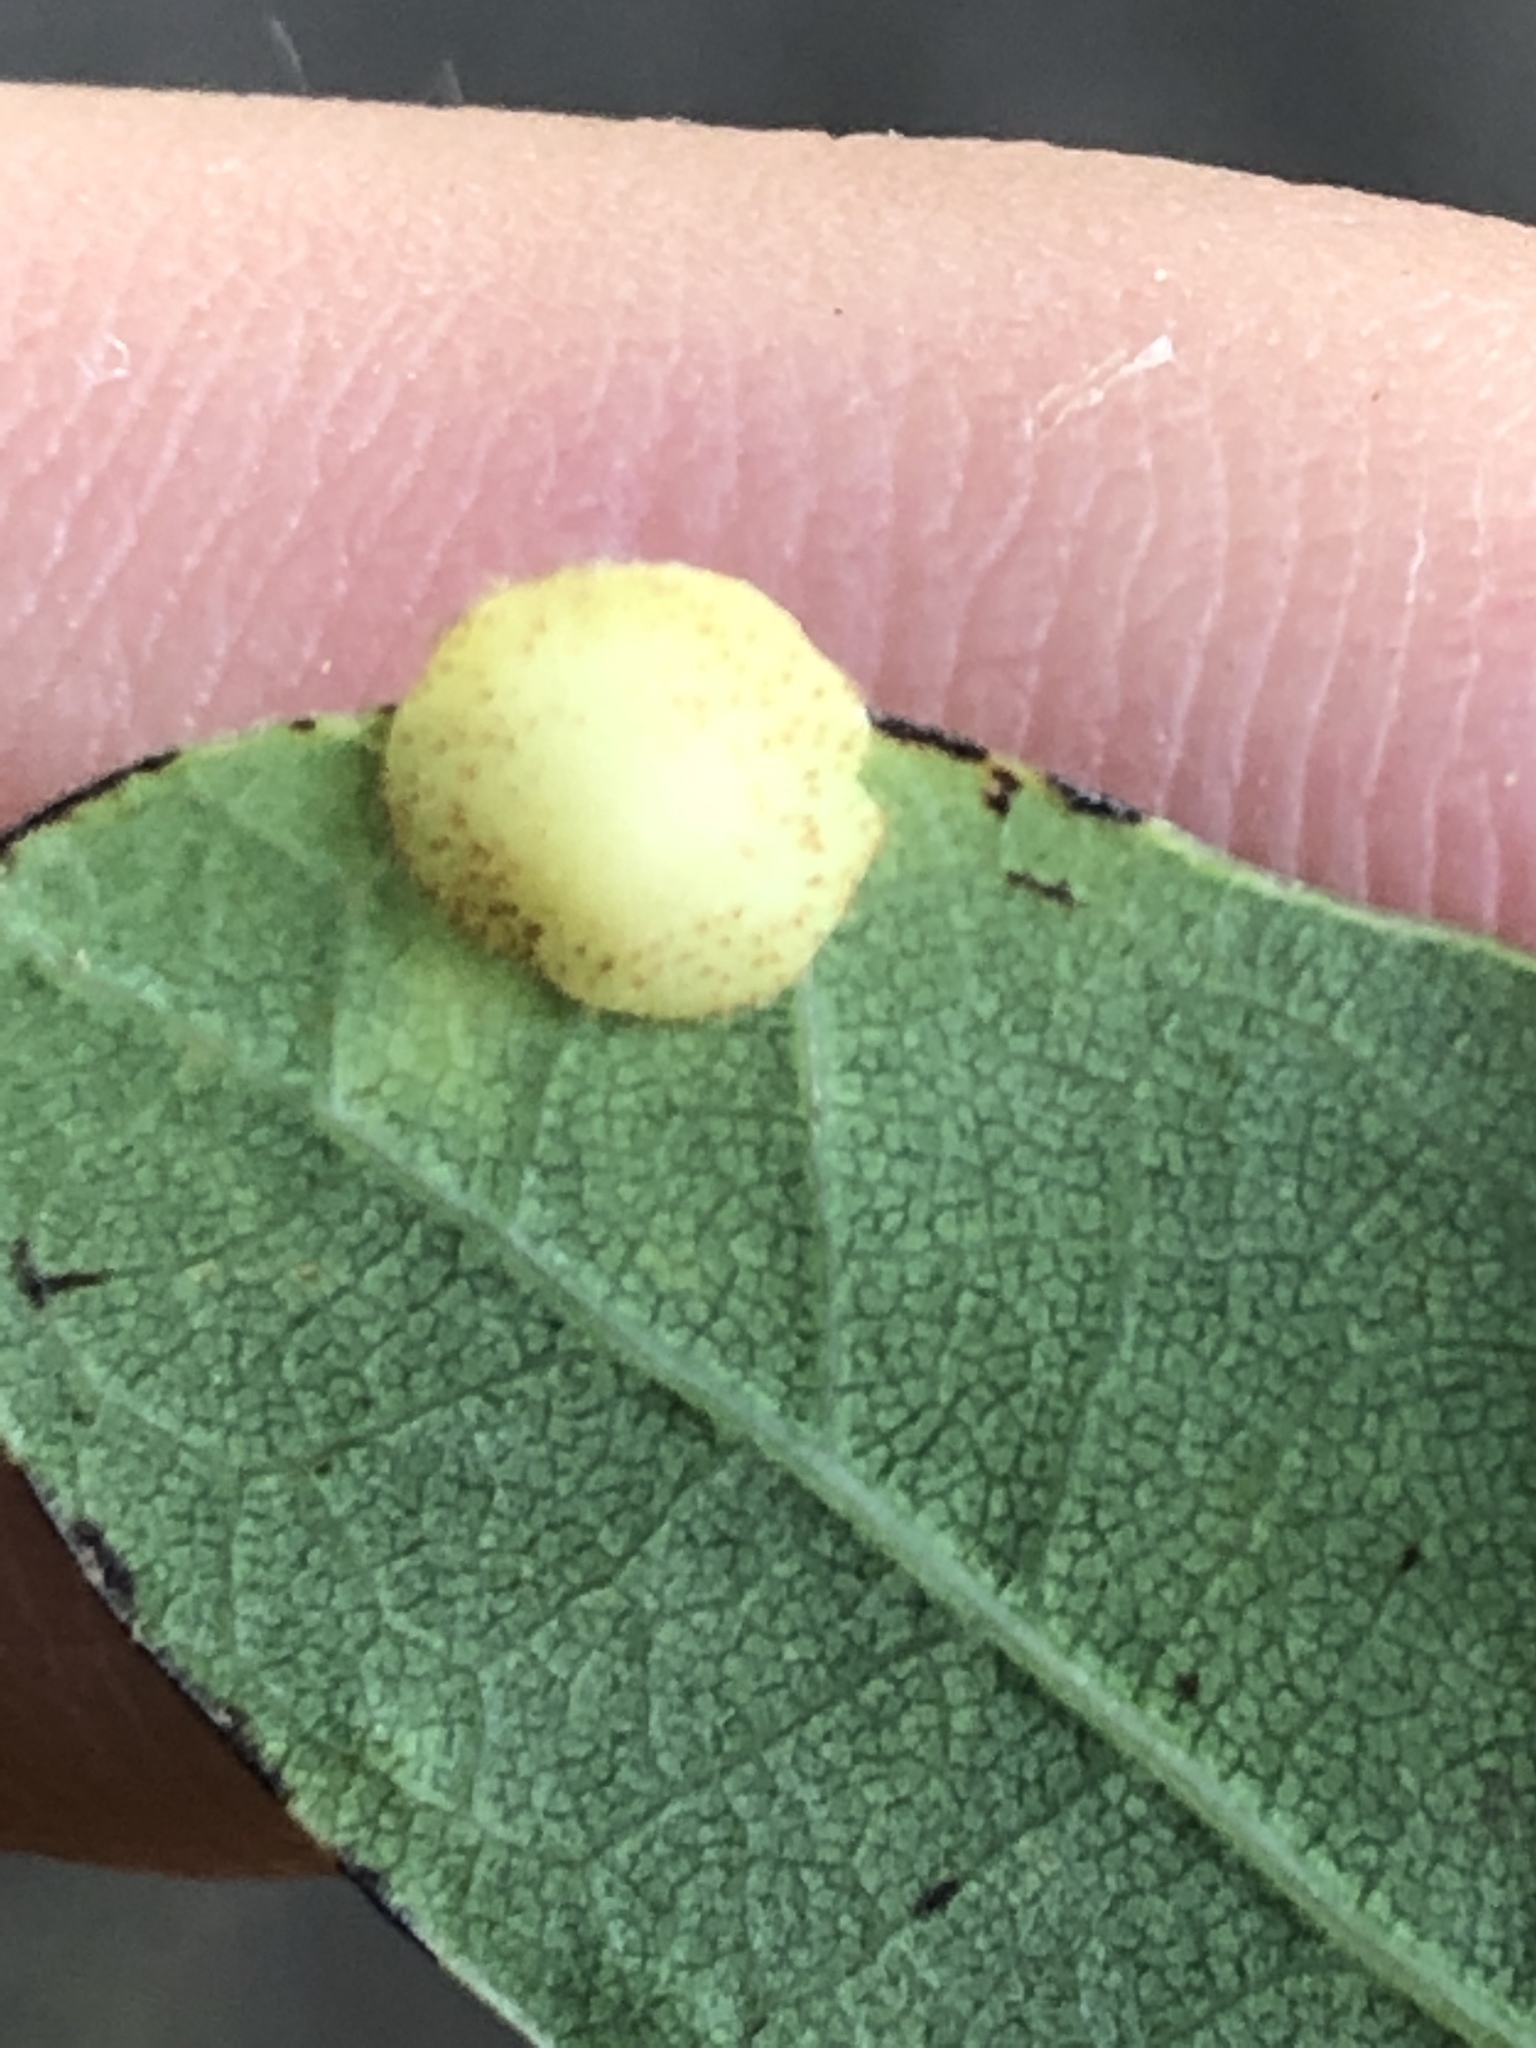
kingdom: Animalia
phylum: Arthropoda
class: Insecta
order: Hymenoptera
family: Cynipidae
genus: Neuroterus
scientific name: Neuroterus quercusbaccarum
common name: Common spangle gall
